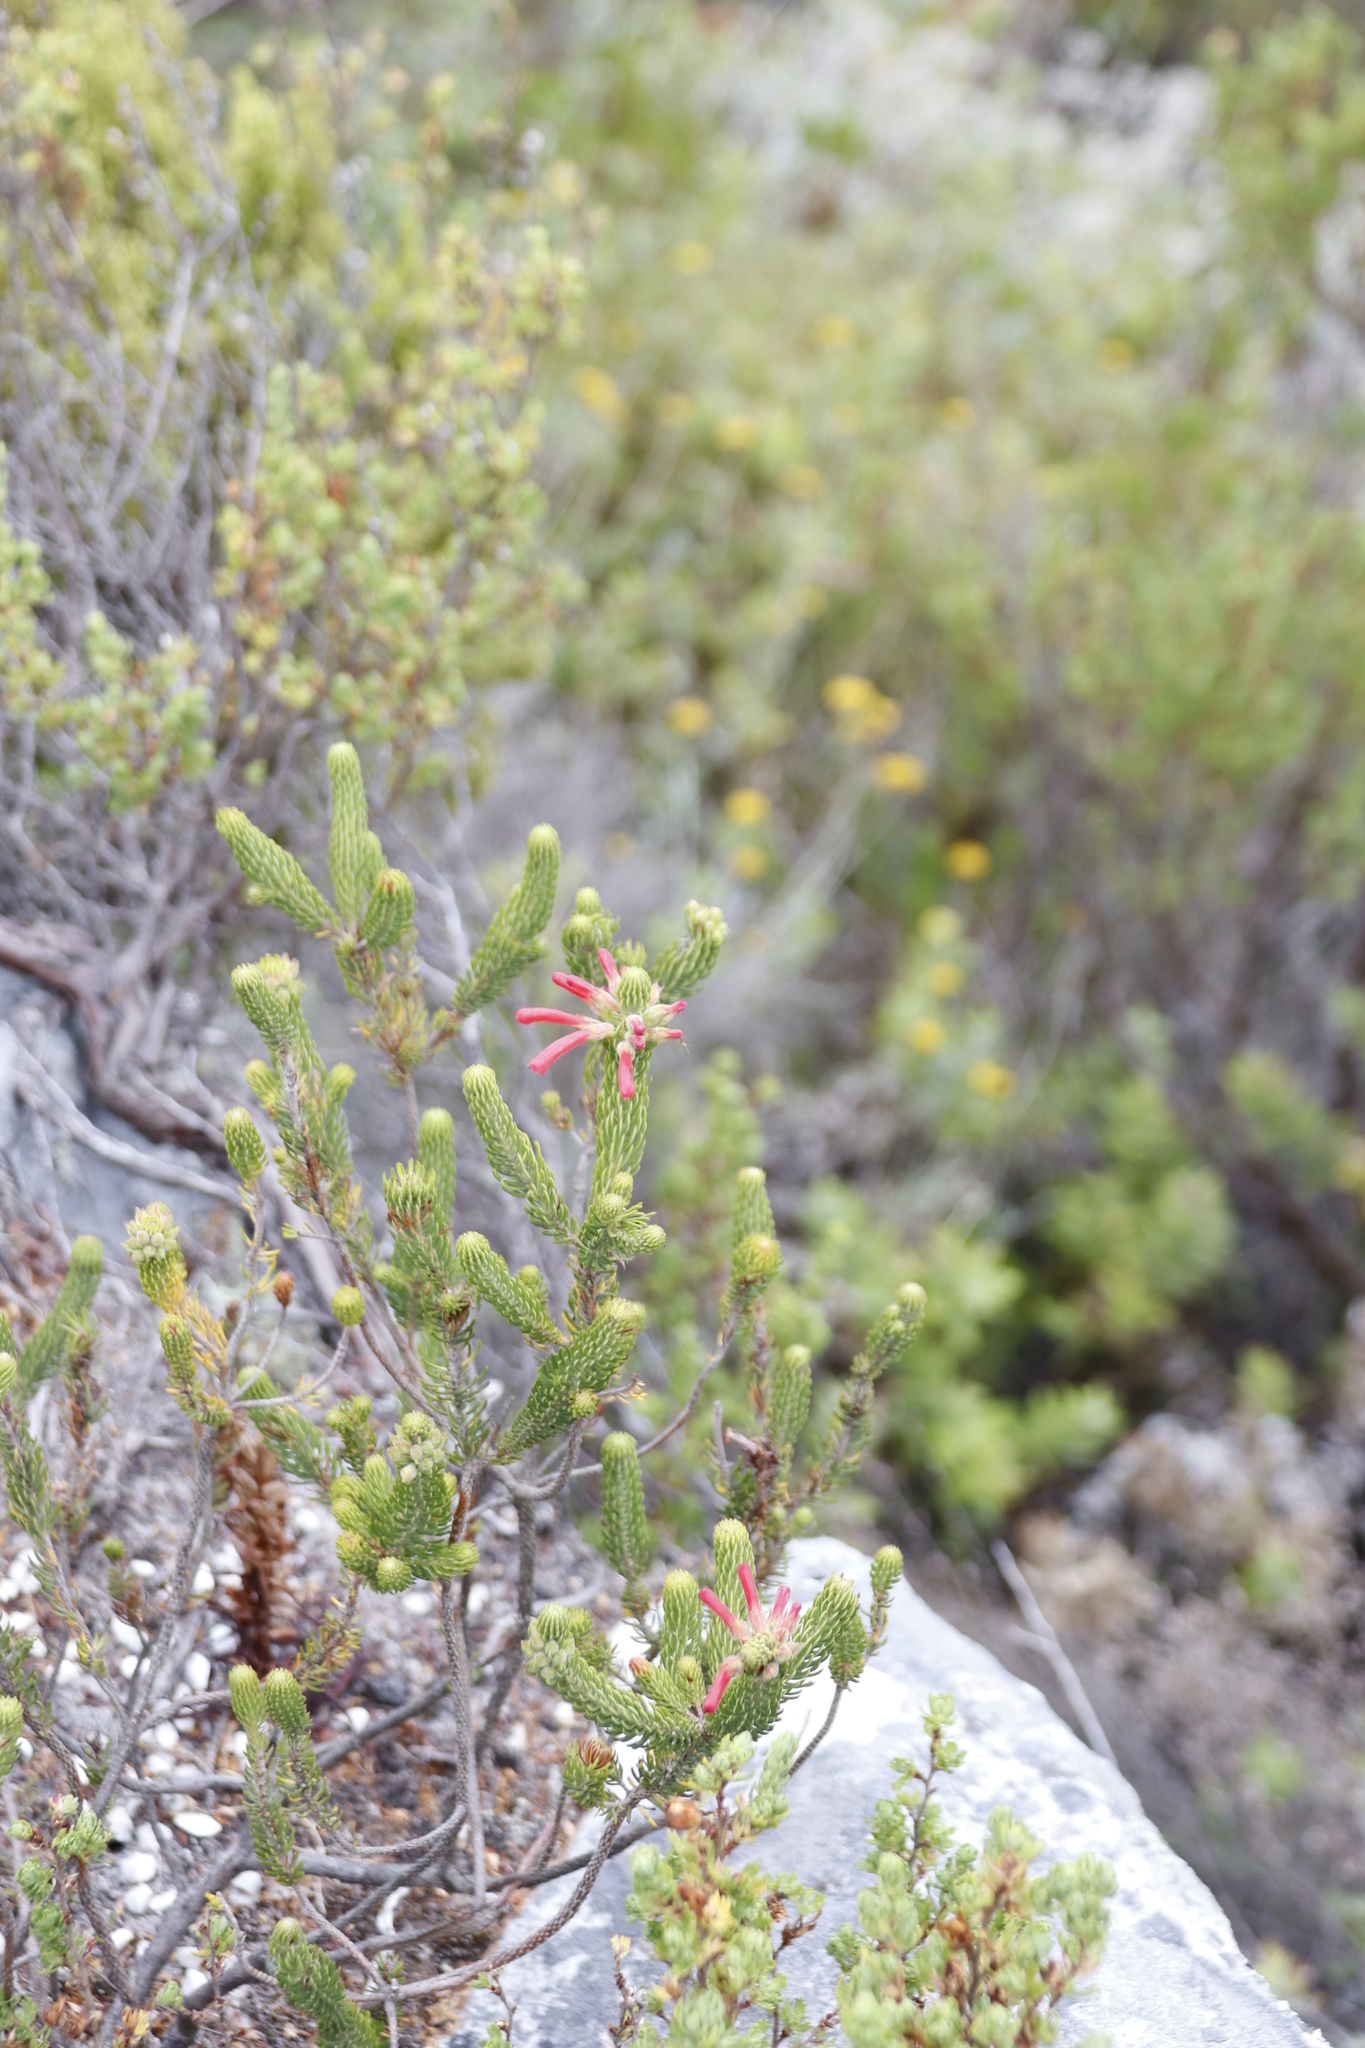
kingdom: Plantae
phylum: Tracheophyta
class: Magnoliopsida
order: Ericales
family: Ericaceae
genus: Erica
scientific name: Erica abietina
